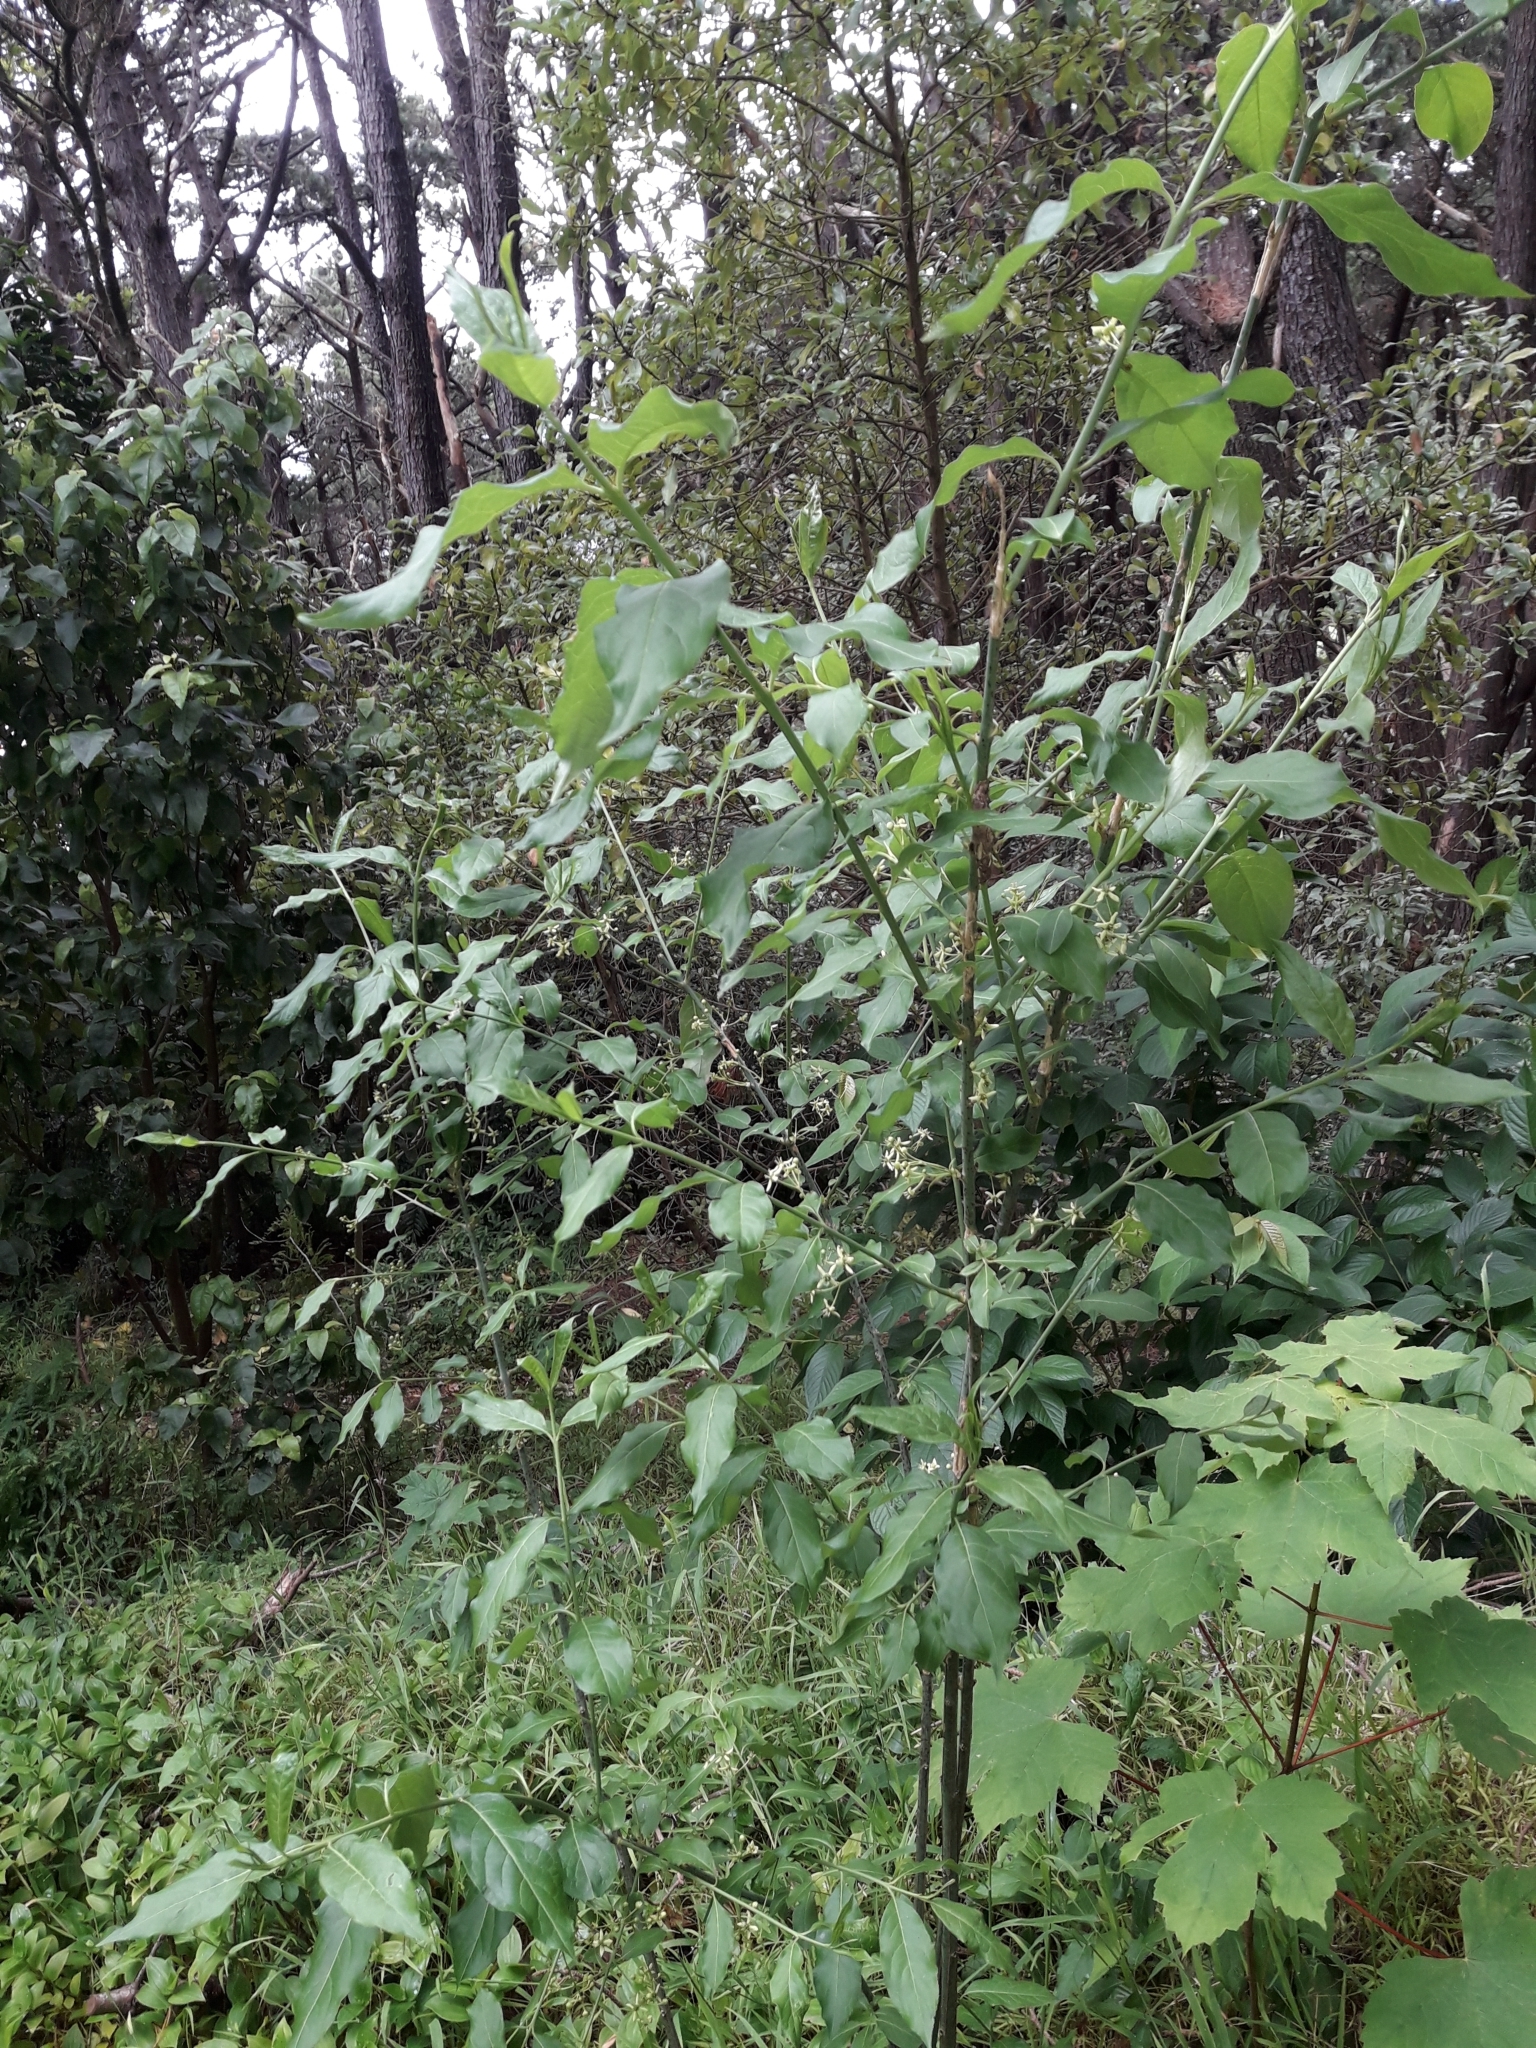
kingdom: Plantae
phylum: Tracheophyta
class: Magnoliopsida
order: Celastrales
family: Celastraceae
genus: Euonymus
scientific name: Euonymus europaeus
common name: Spindle
